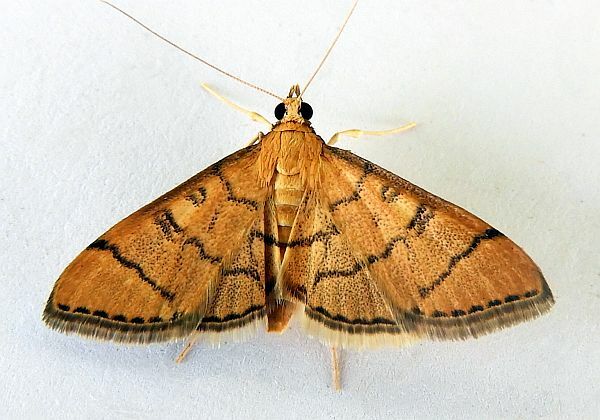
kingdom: Animalia
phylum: Arthropoda
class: Insecta
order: Lepidoptera
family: Crambidae
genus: Lamprosema
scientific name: Lamprosema Blepharomastix ranalis
